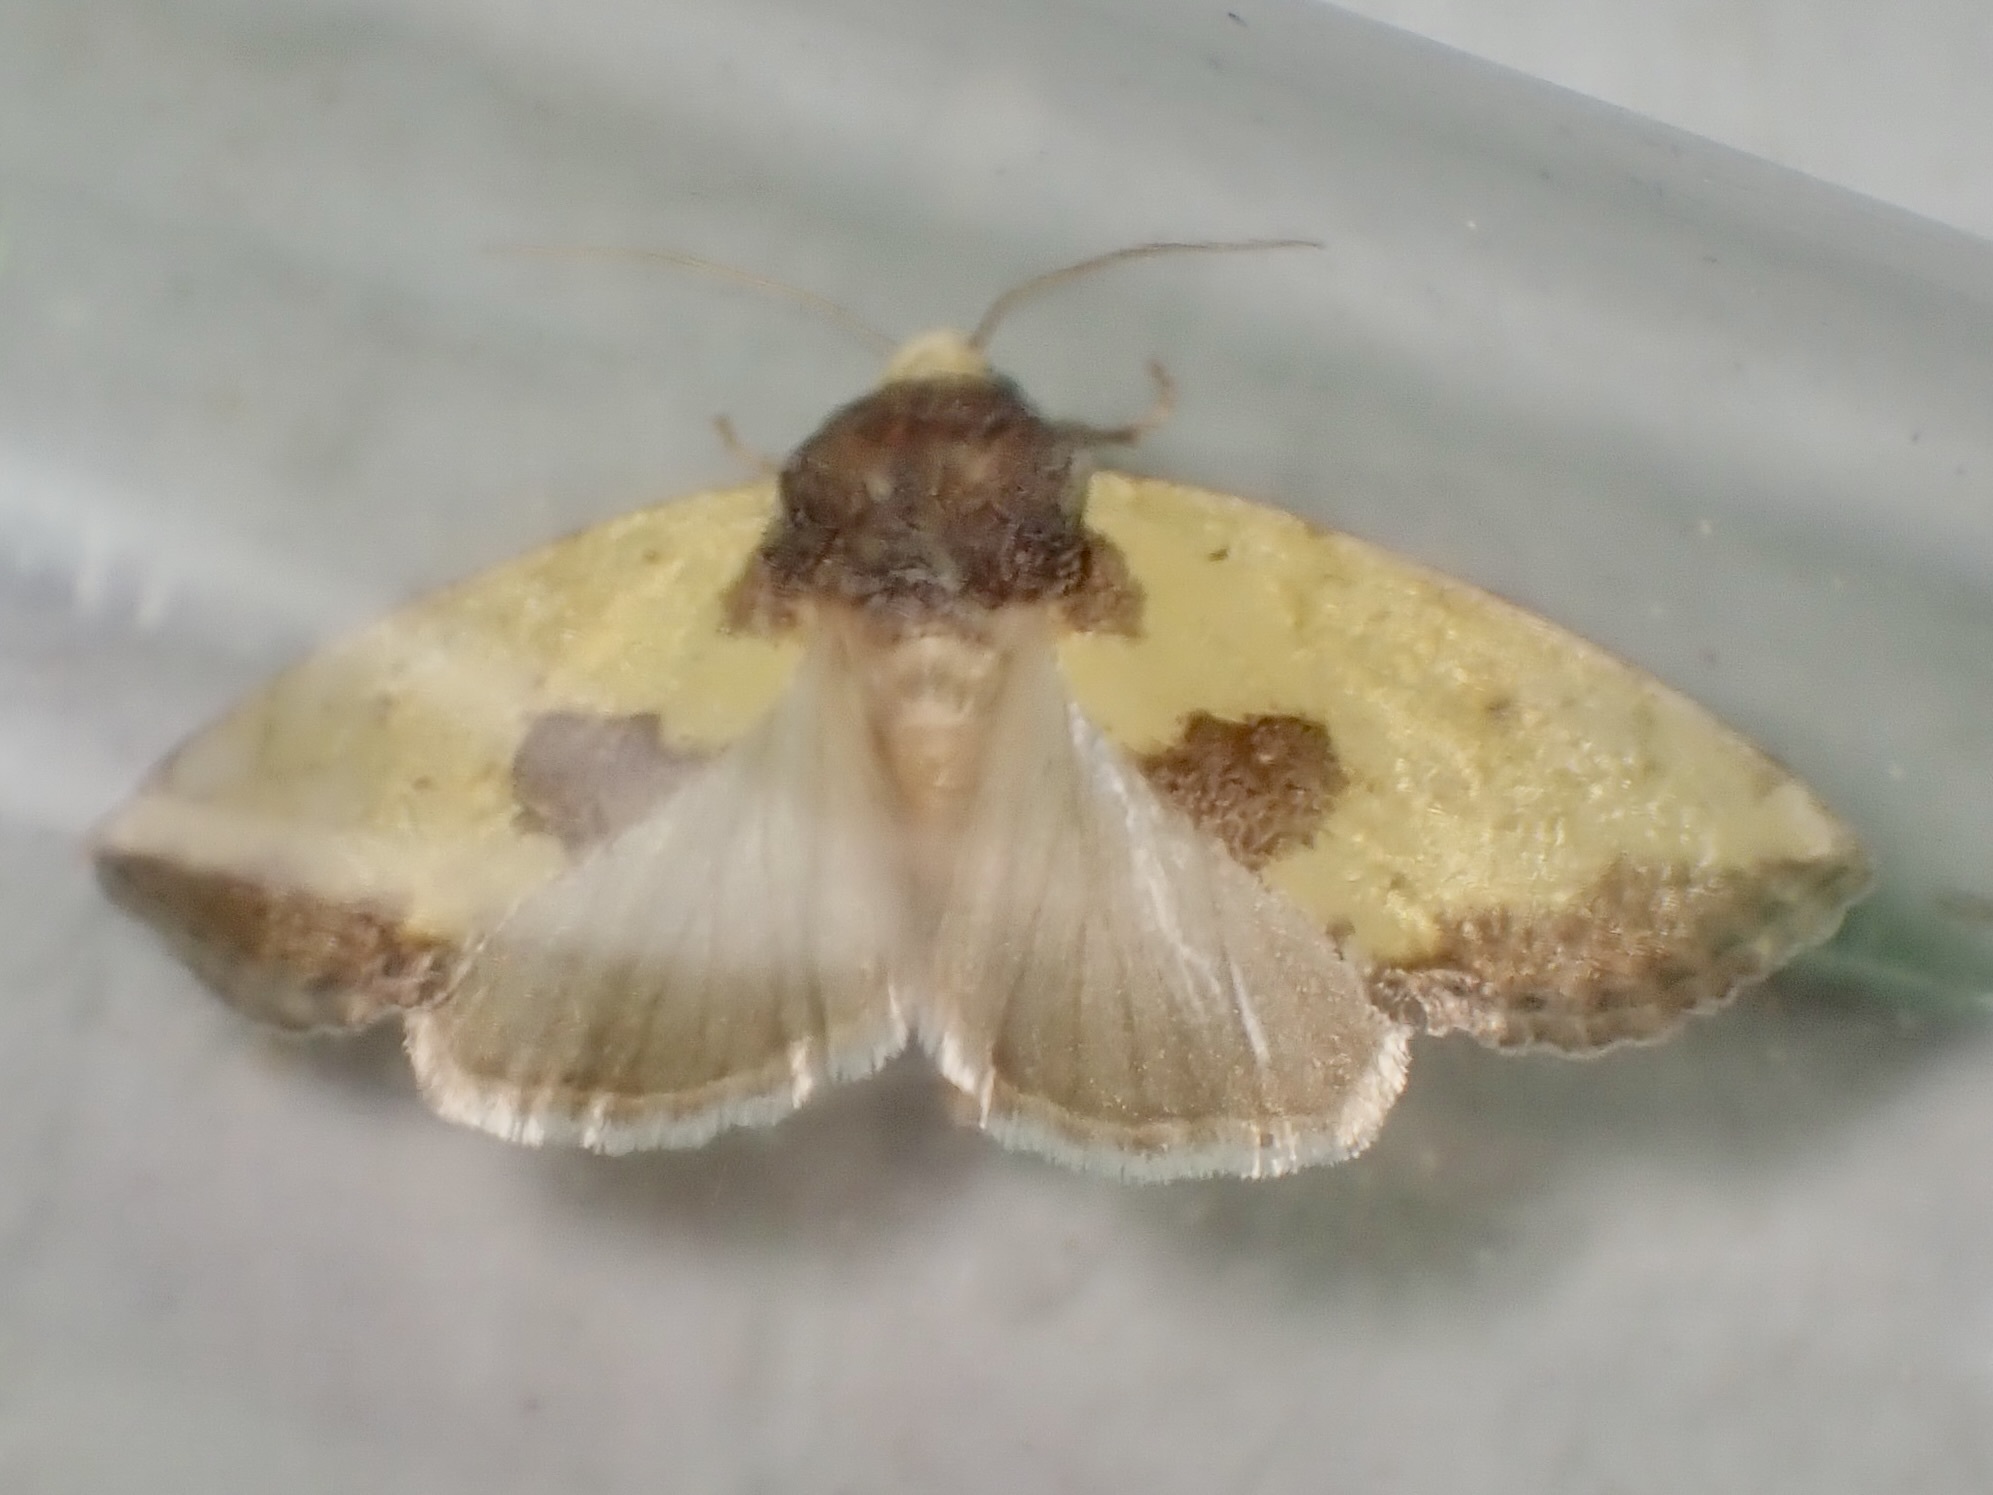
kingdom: Animalia
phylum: Arthropoda
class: Insecta
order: Lepidoptera
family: Noctuidae
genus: Stiria
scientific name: Stiria sulphurea
